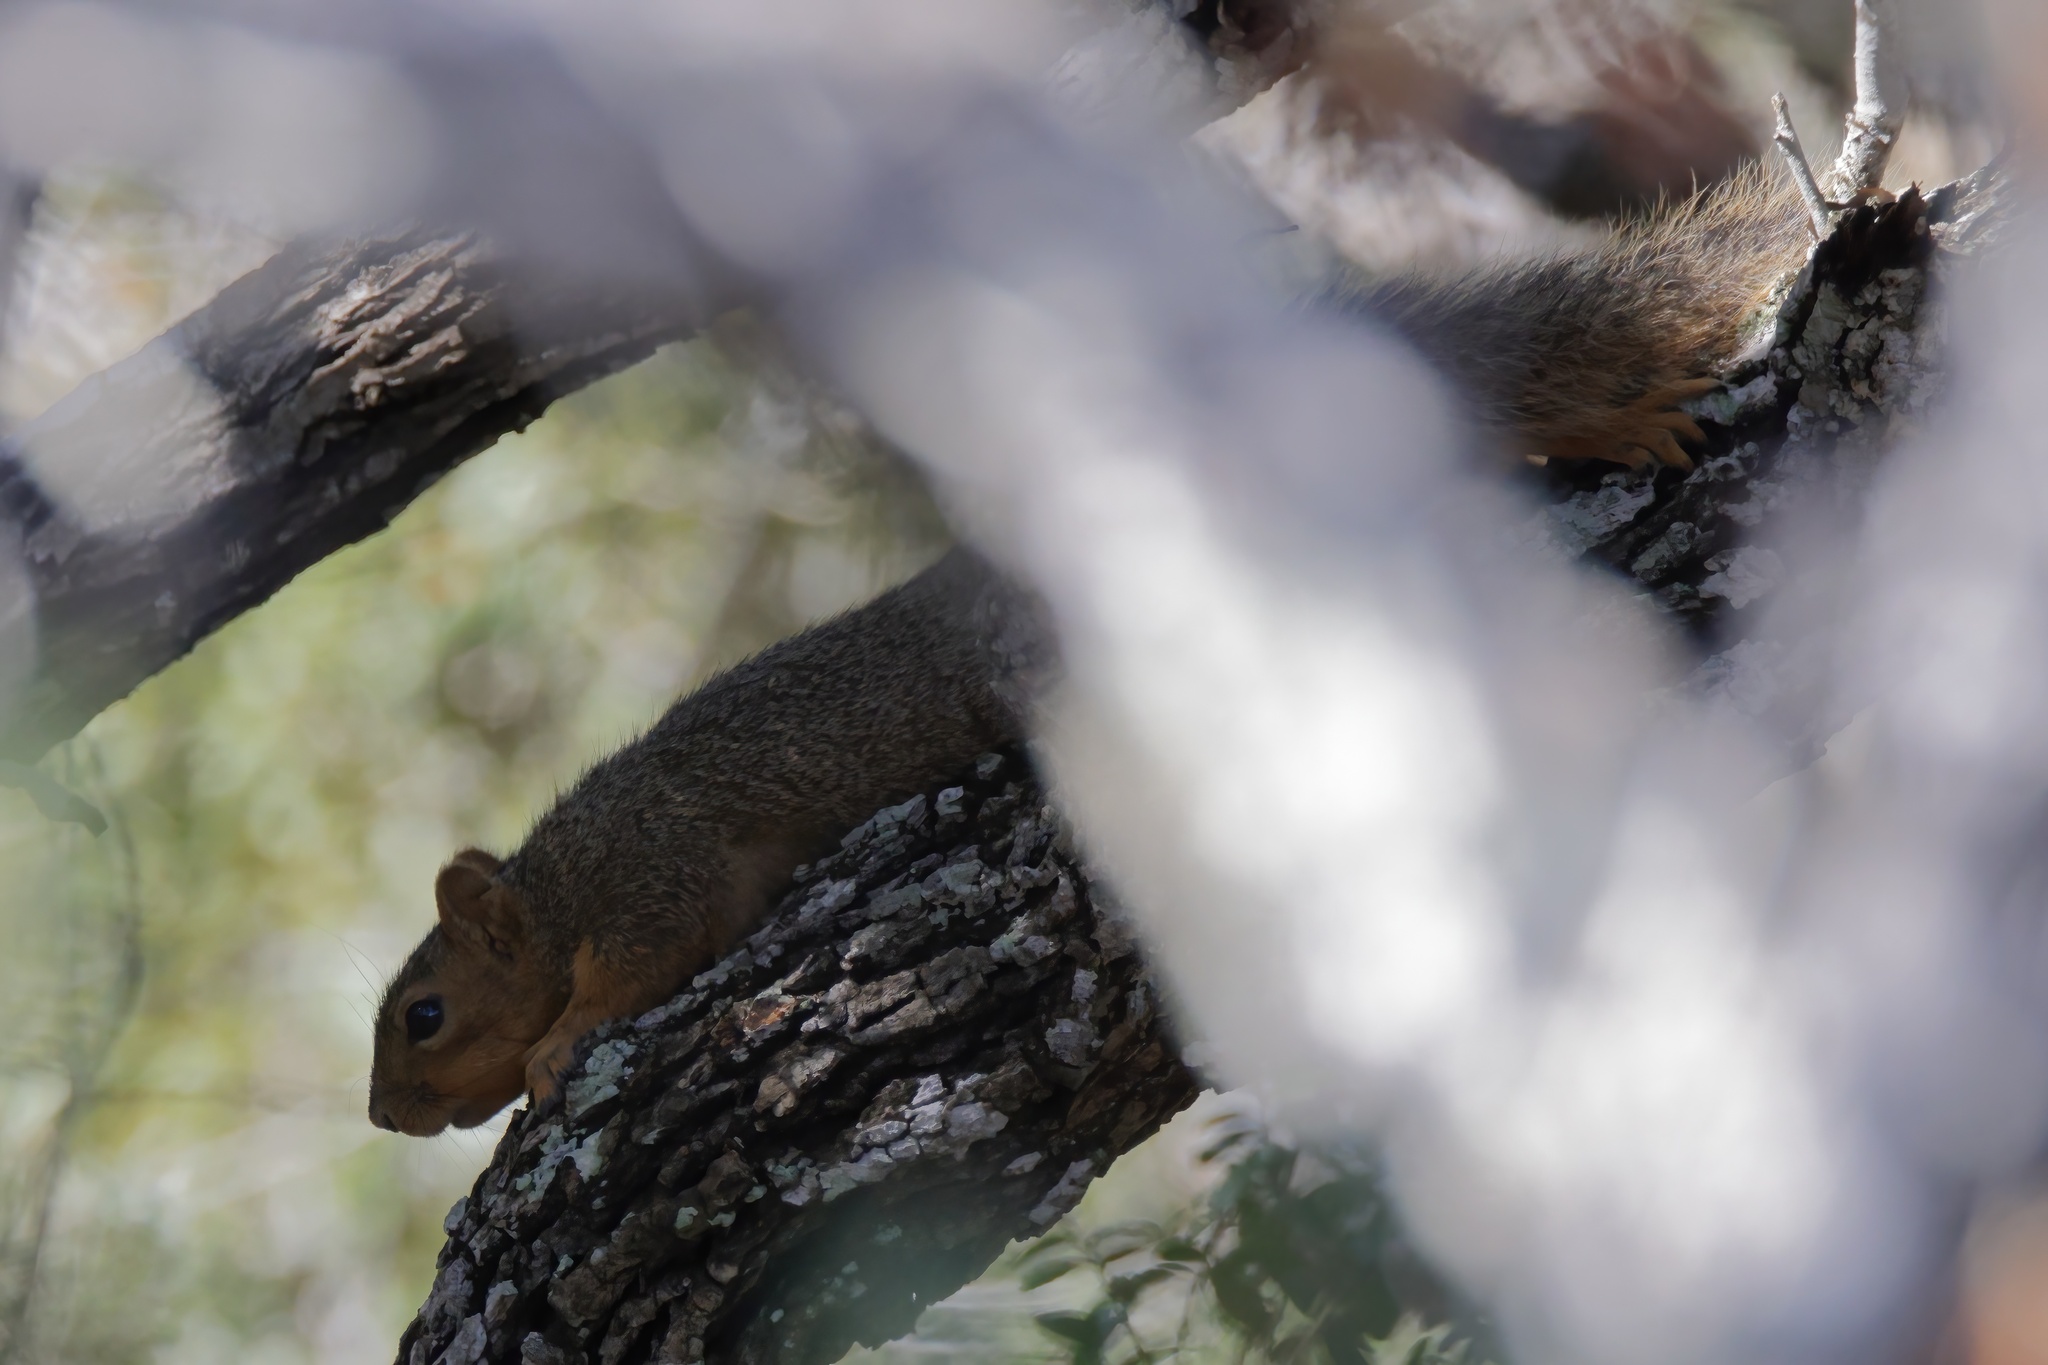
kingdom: Animalia
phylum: Chordata
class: Mammalia
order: Rodentia
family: Sciuridae
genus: Sciurus
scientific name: Sciurus niger
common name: Fox squirrel
